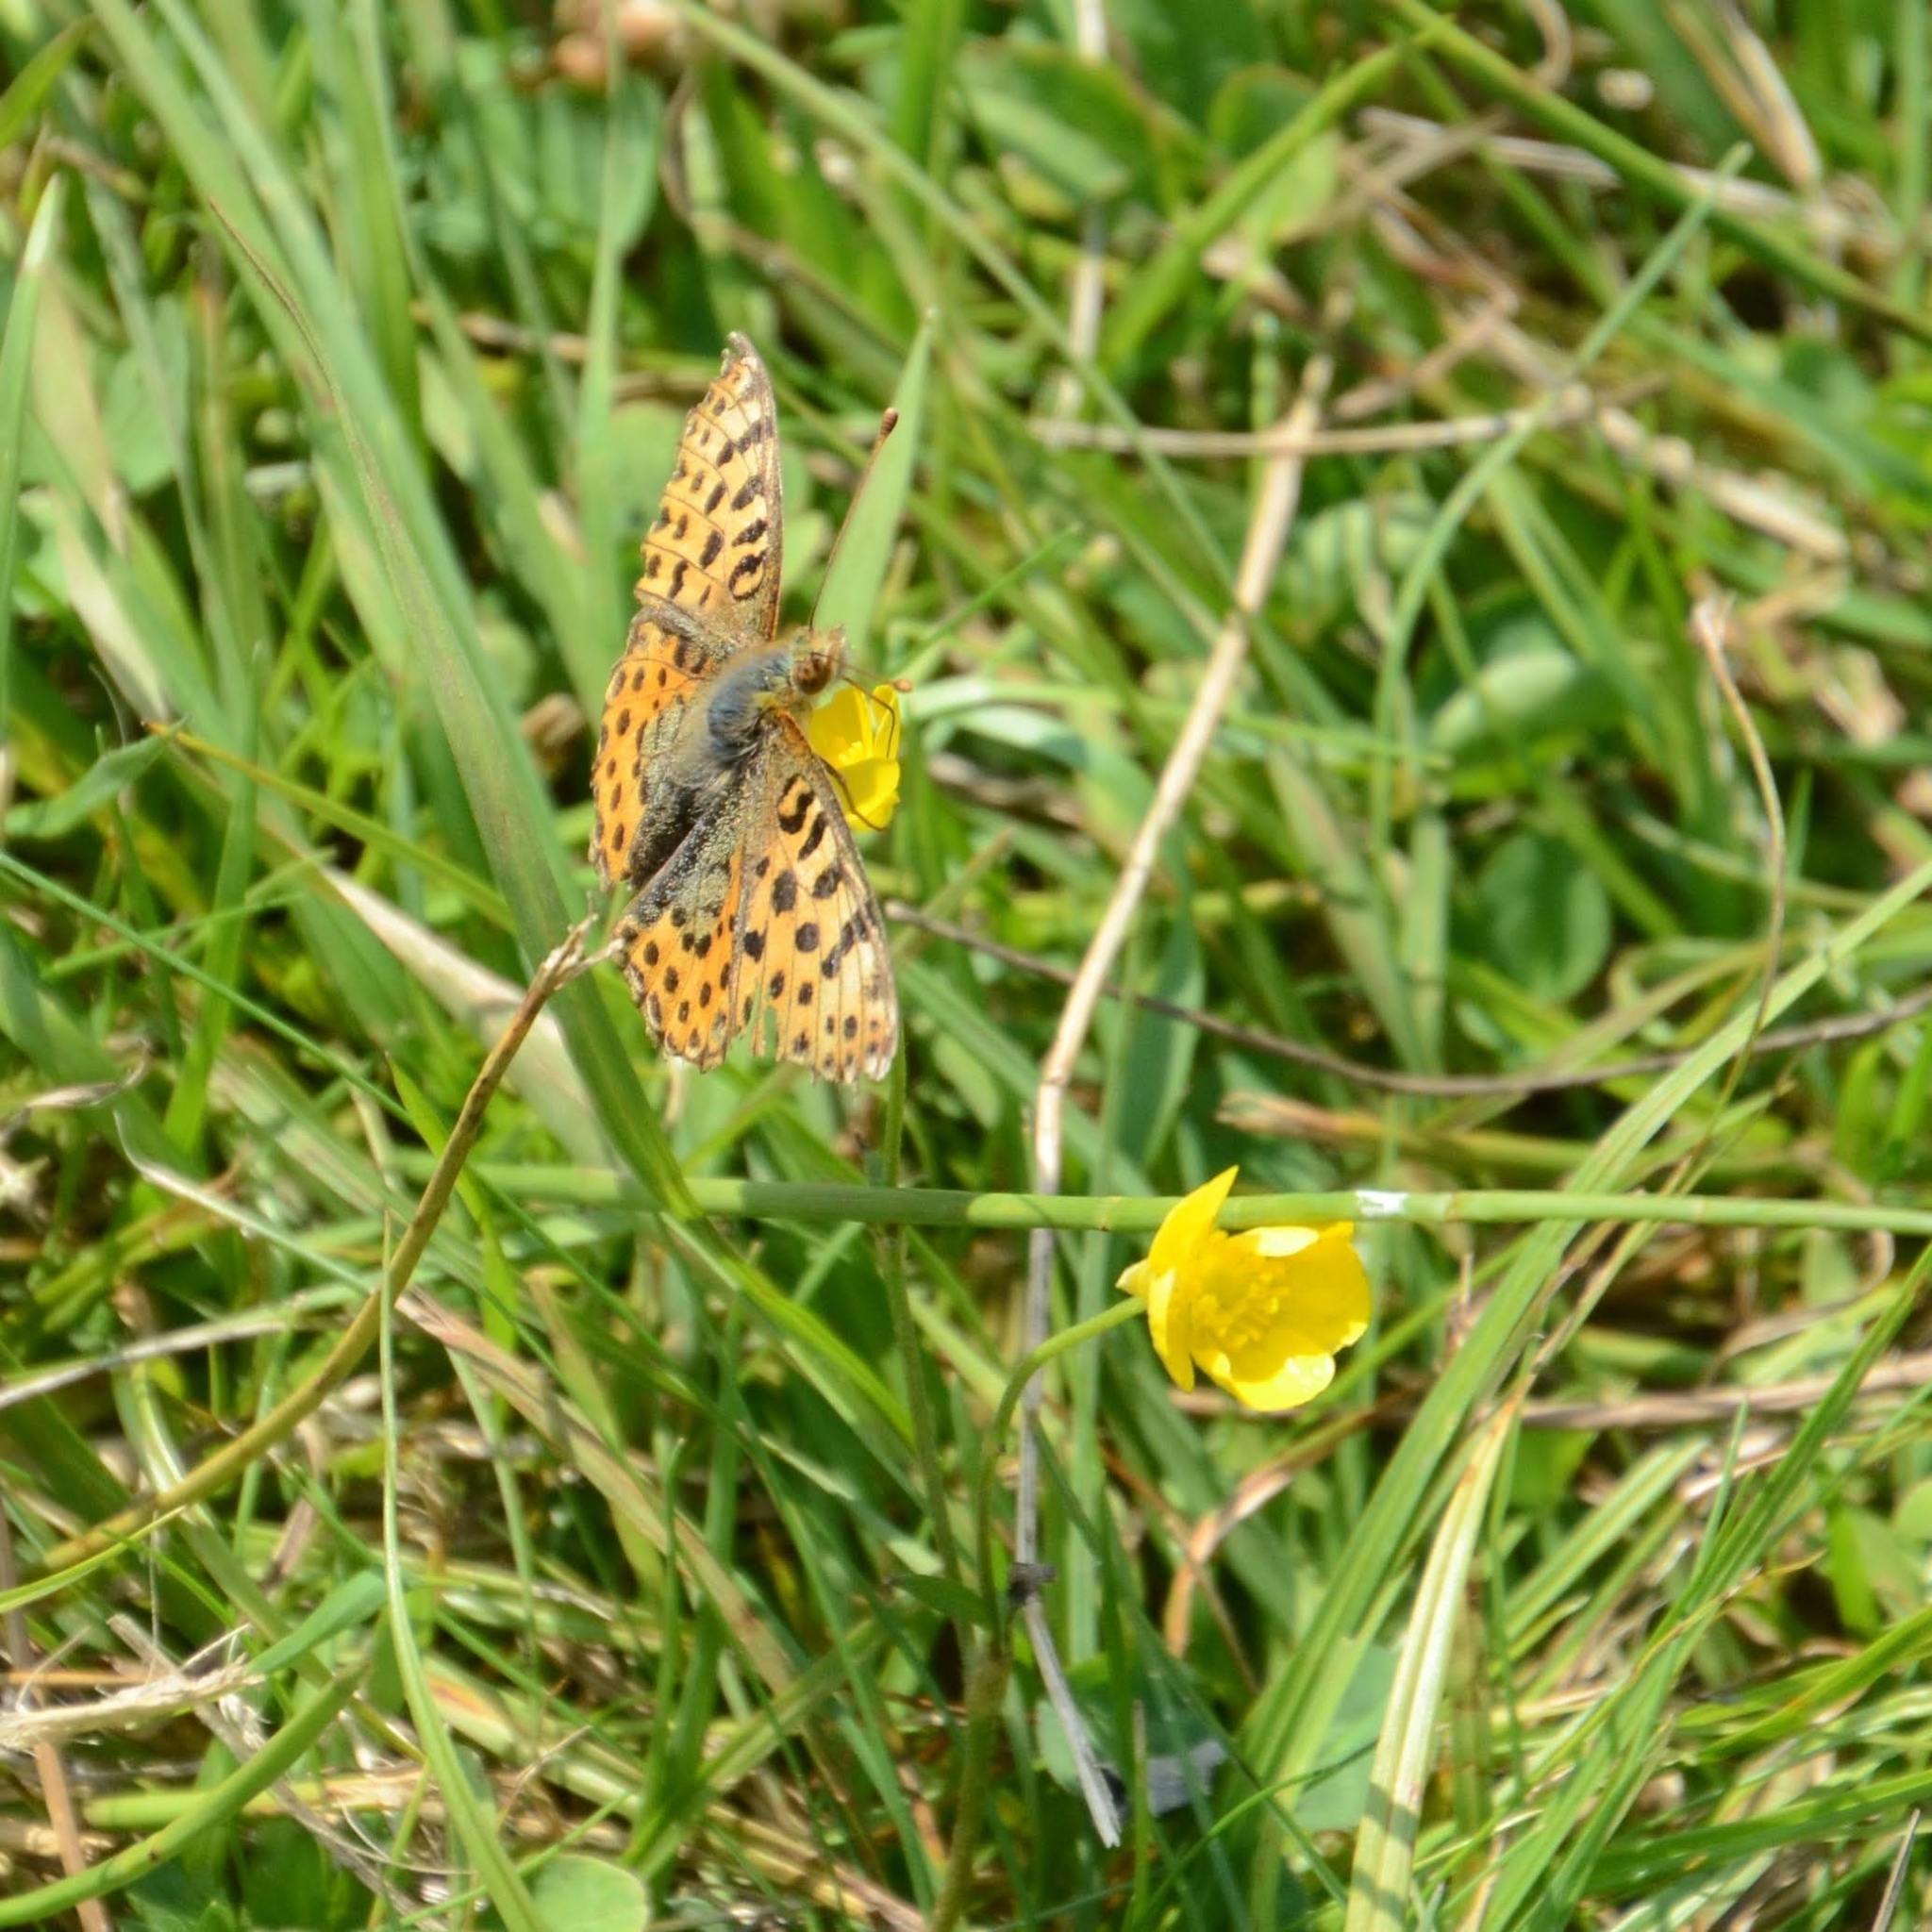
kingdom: Animalia
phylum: Arthropoda
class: Insecta
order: Lepidoptera
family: Nymphalidae
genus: Issoria
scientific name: Issoria lathonia
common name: Queen of spain fritillary
